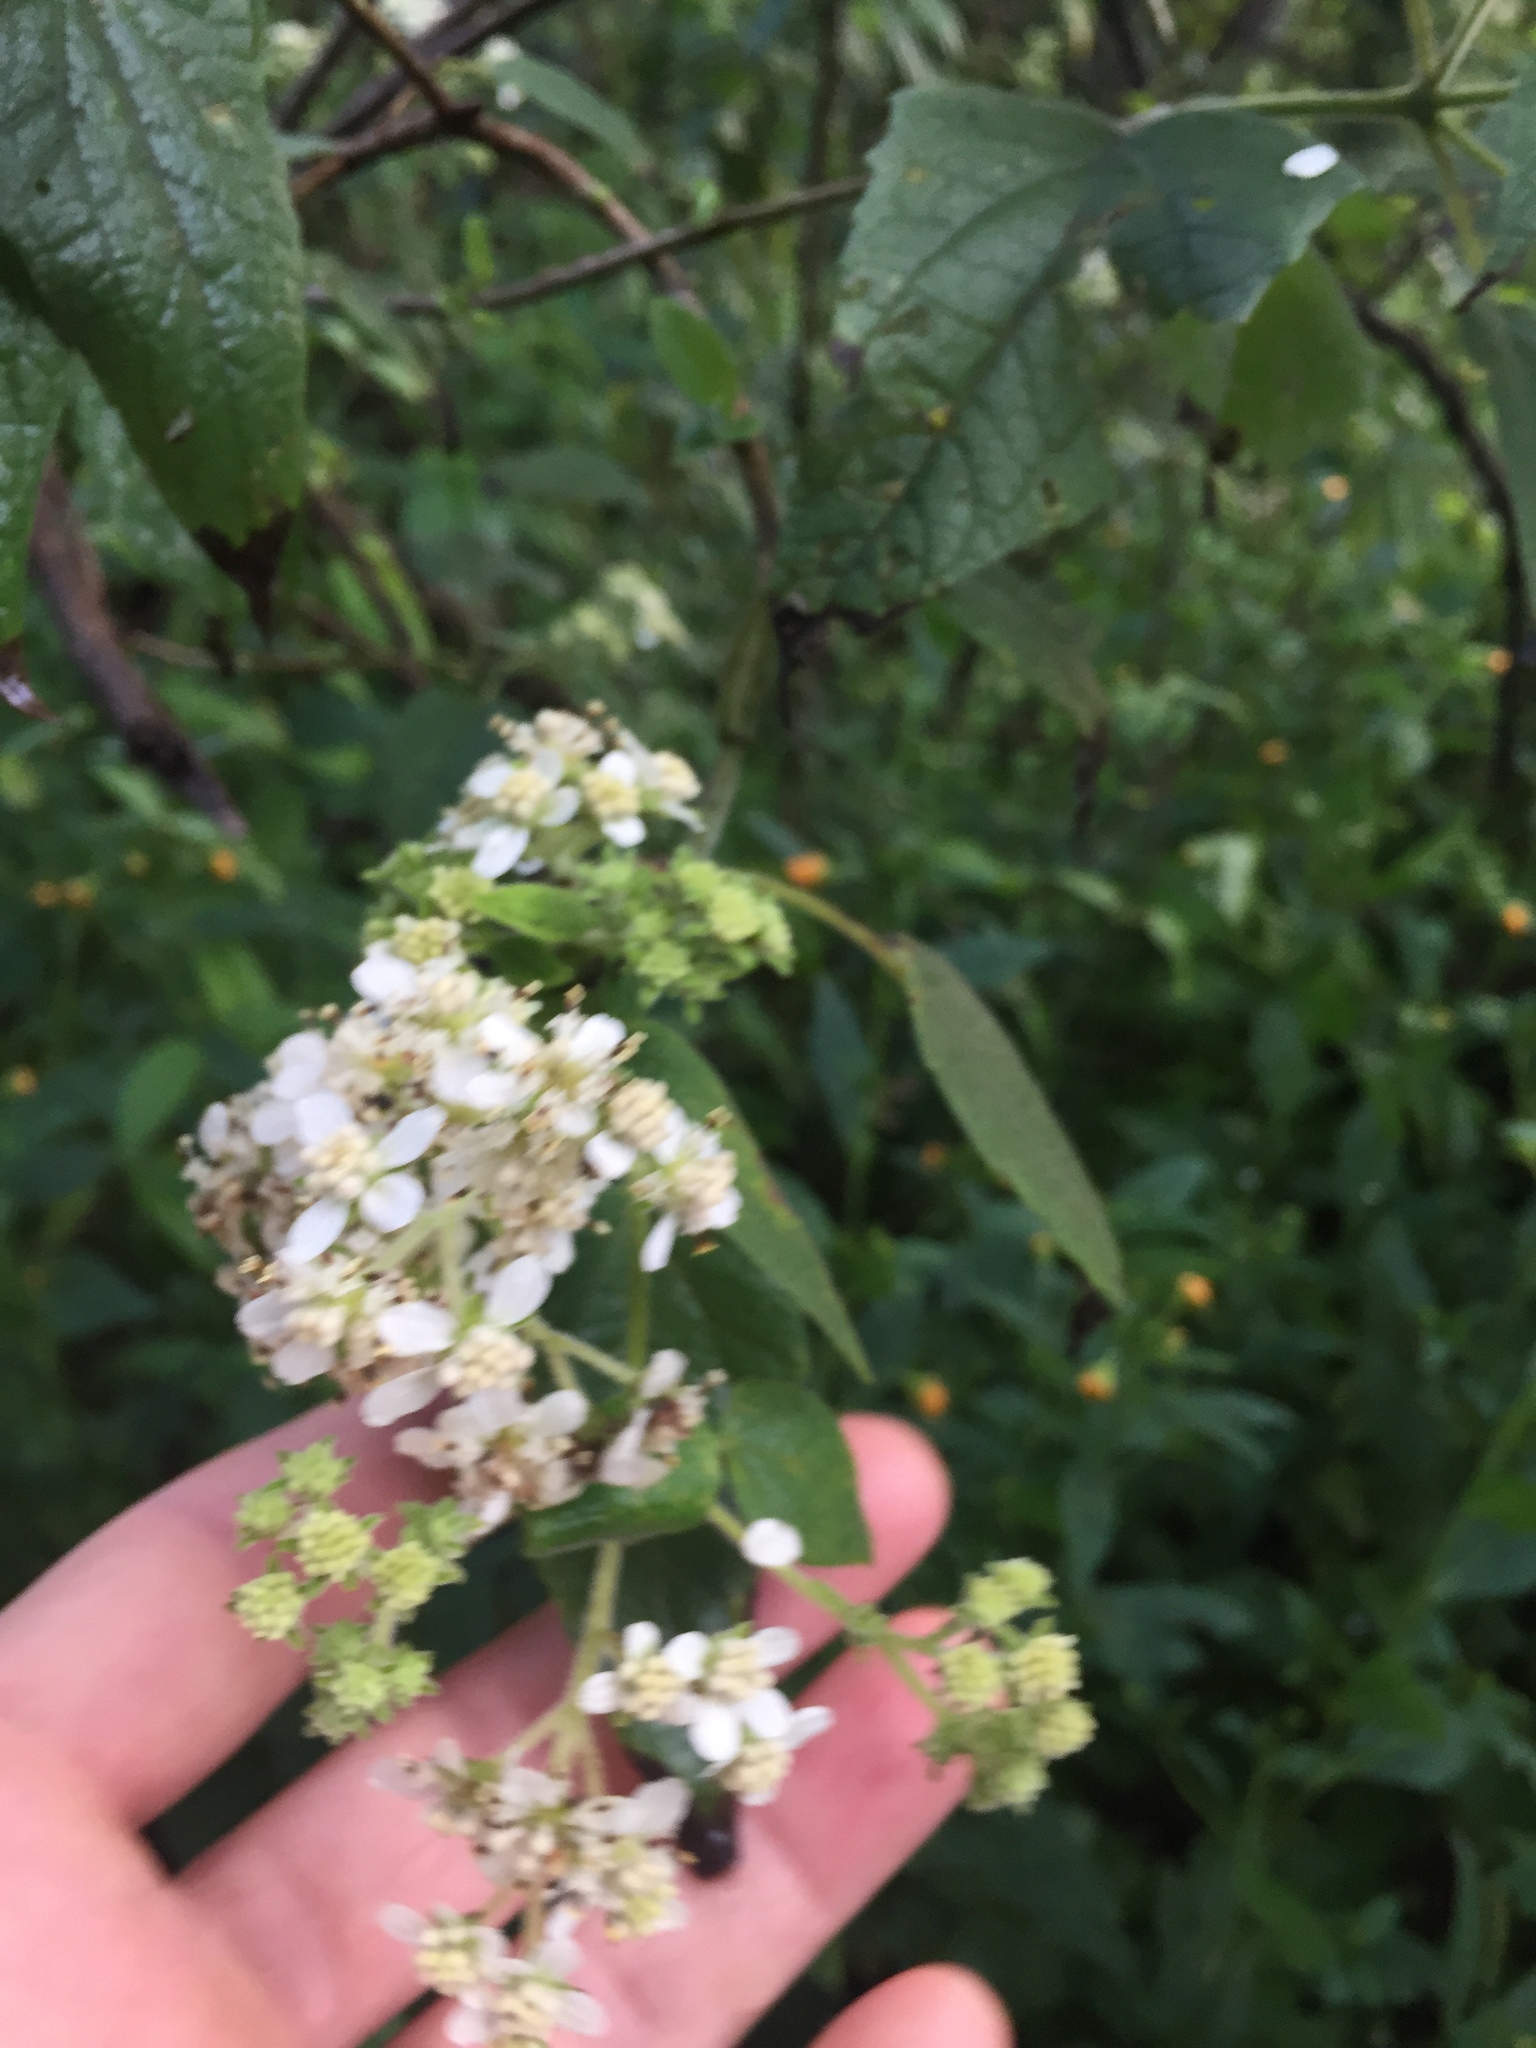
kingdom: Plantae
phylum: Tracheophyta
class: Magnoliopsida
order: Asterales
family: Asteraceae
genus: Montanoa
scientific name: Montanoa tomentosa
